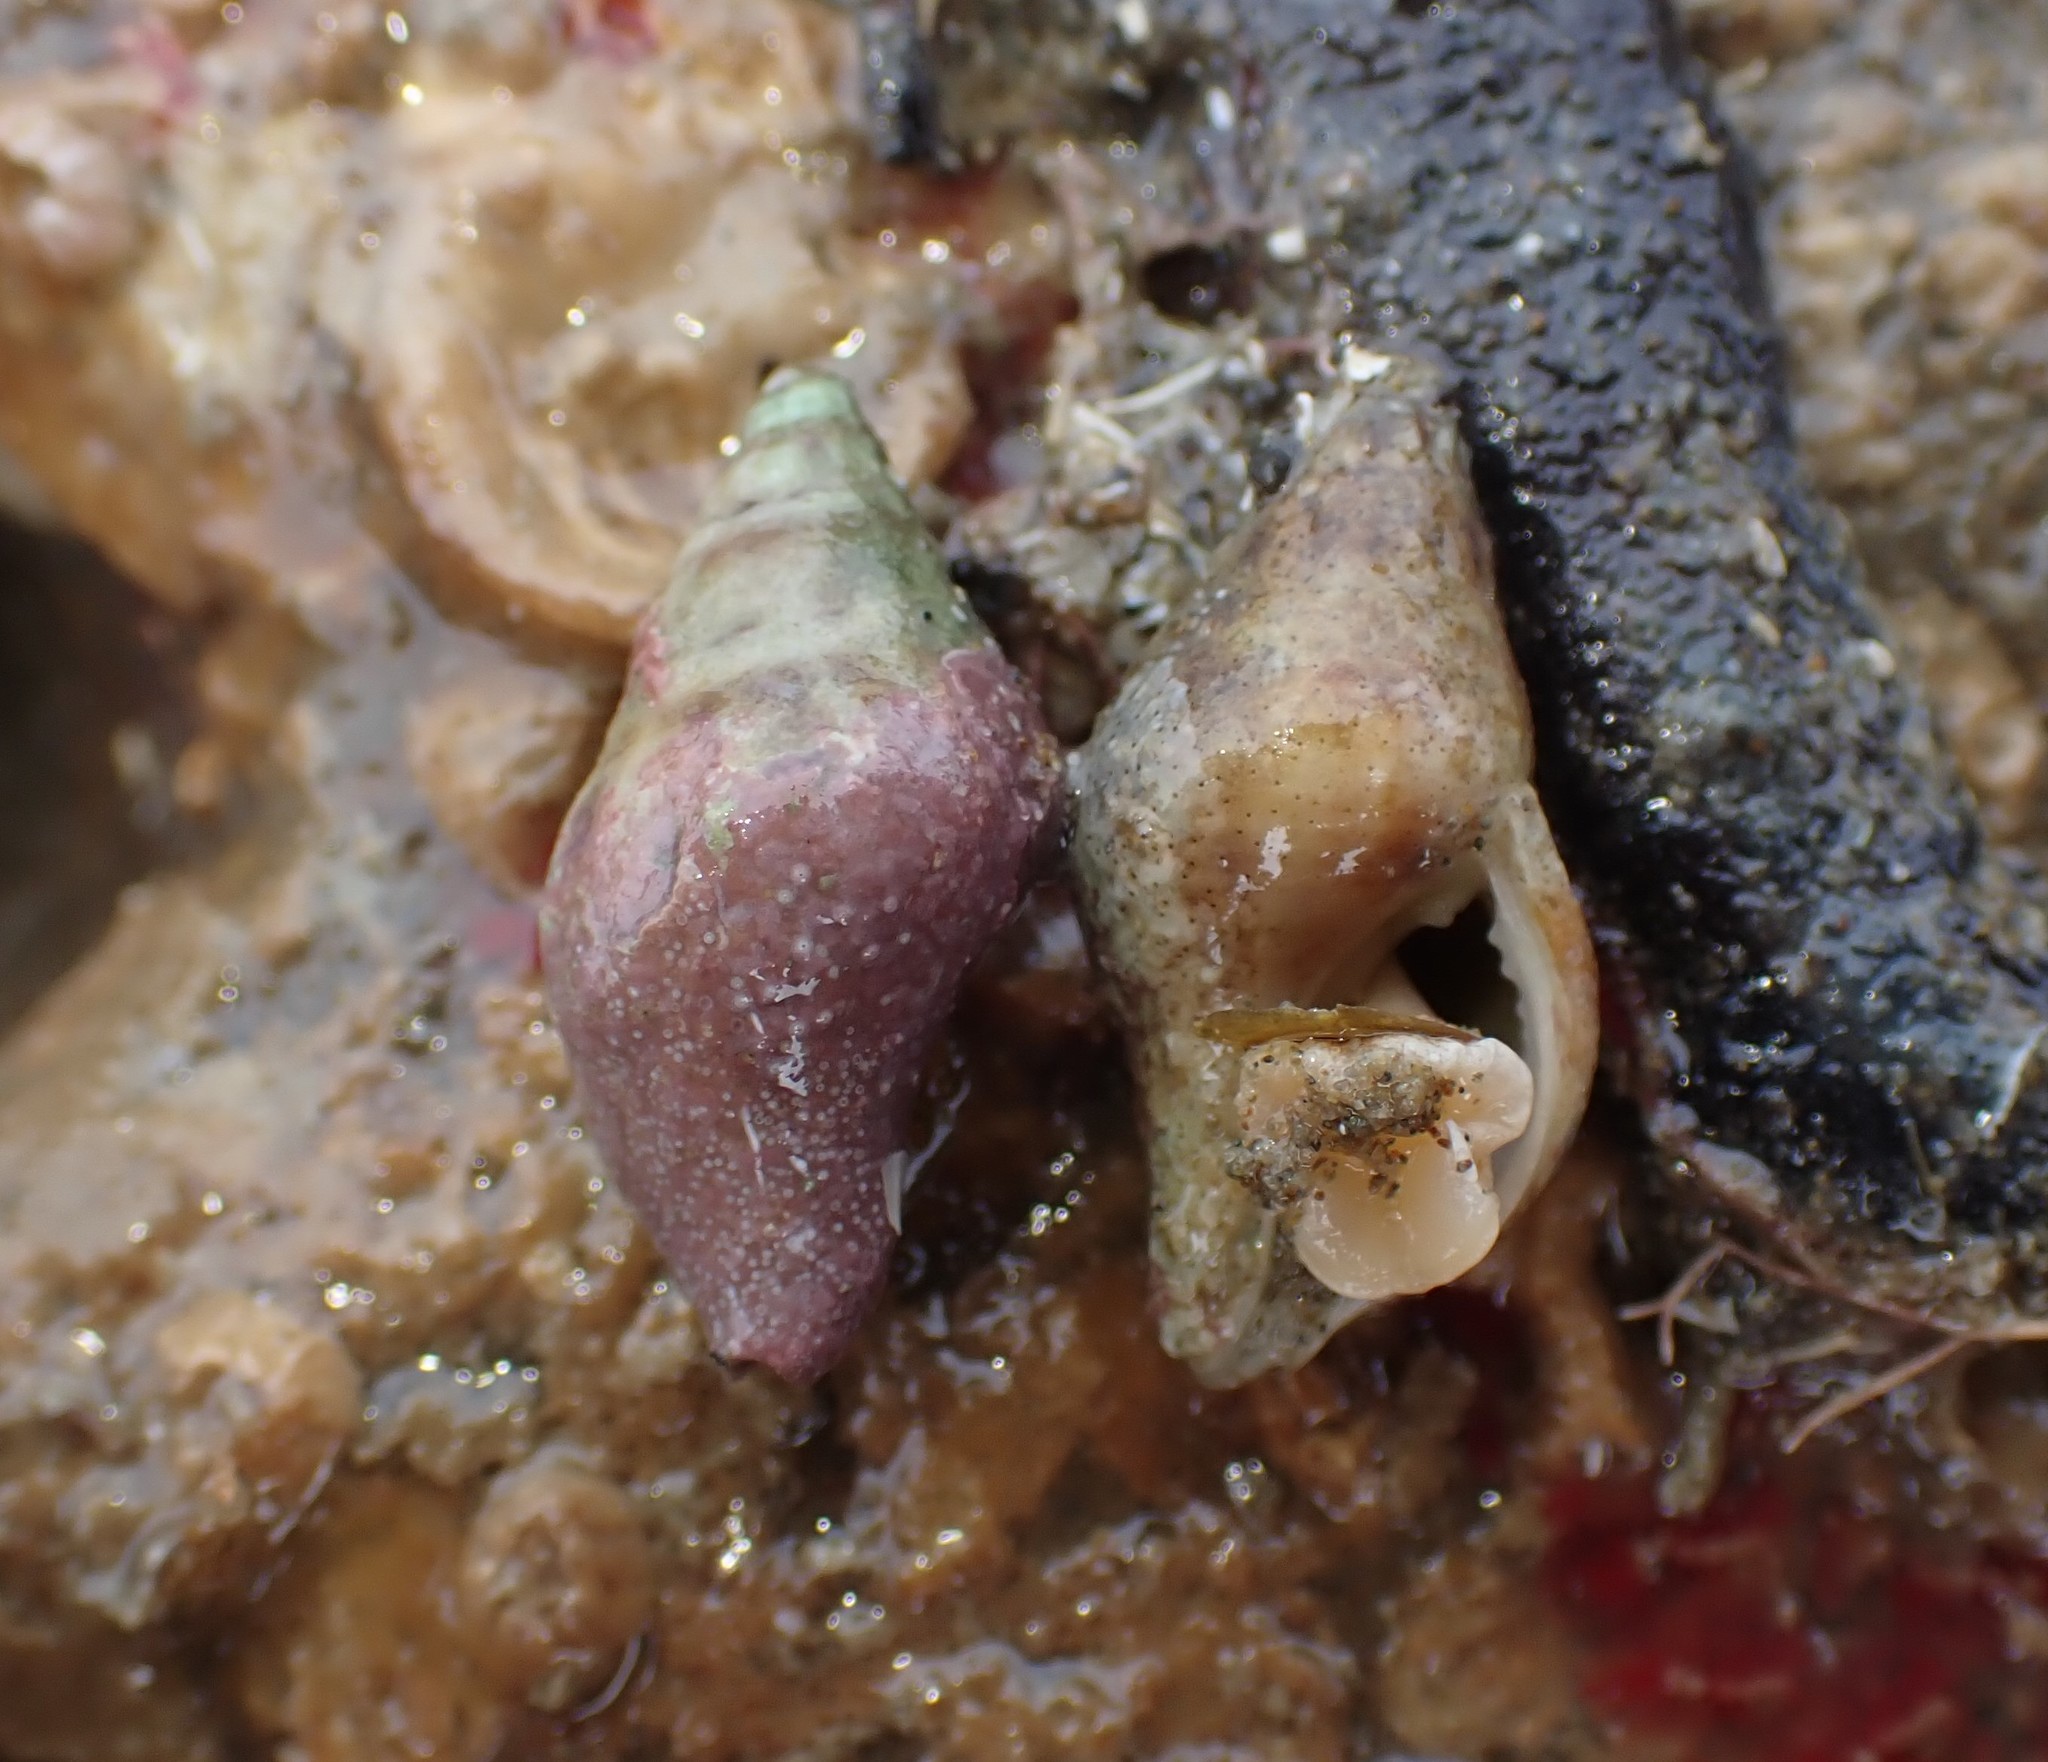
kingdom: Animalia
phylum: Mollusca
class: Gastropoda
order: Neogastropoda
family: Tudiclidae
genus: Buccinulum
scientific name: Buccinulum vittatum
